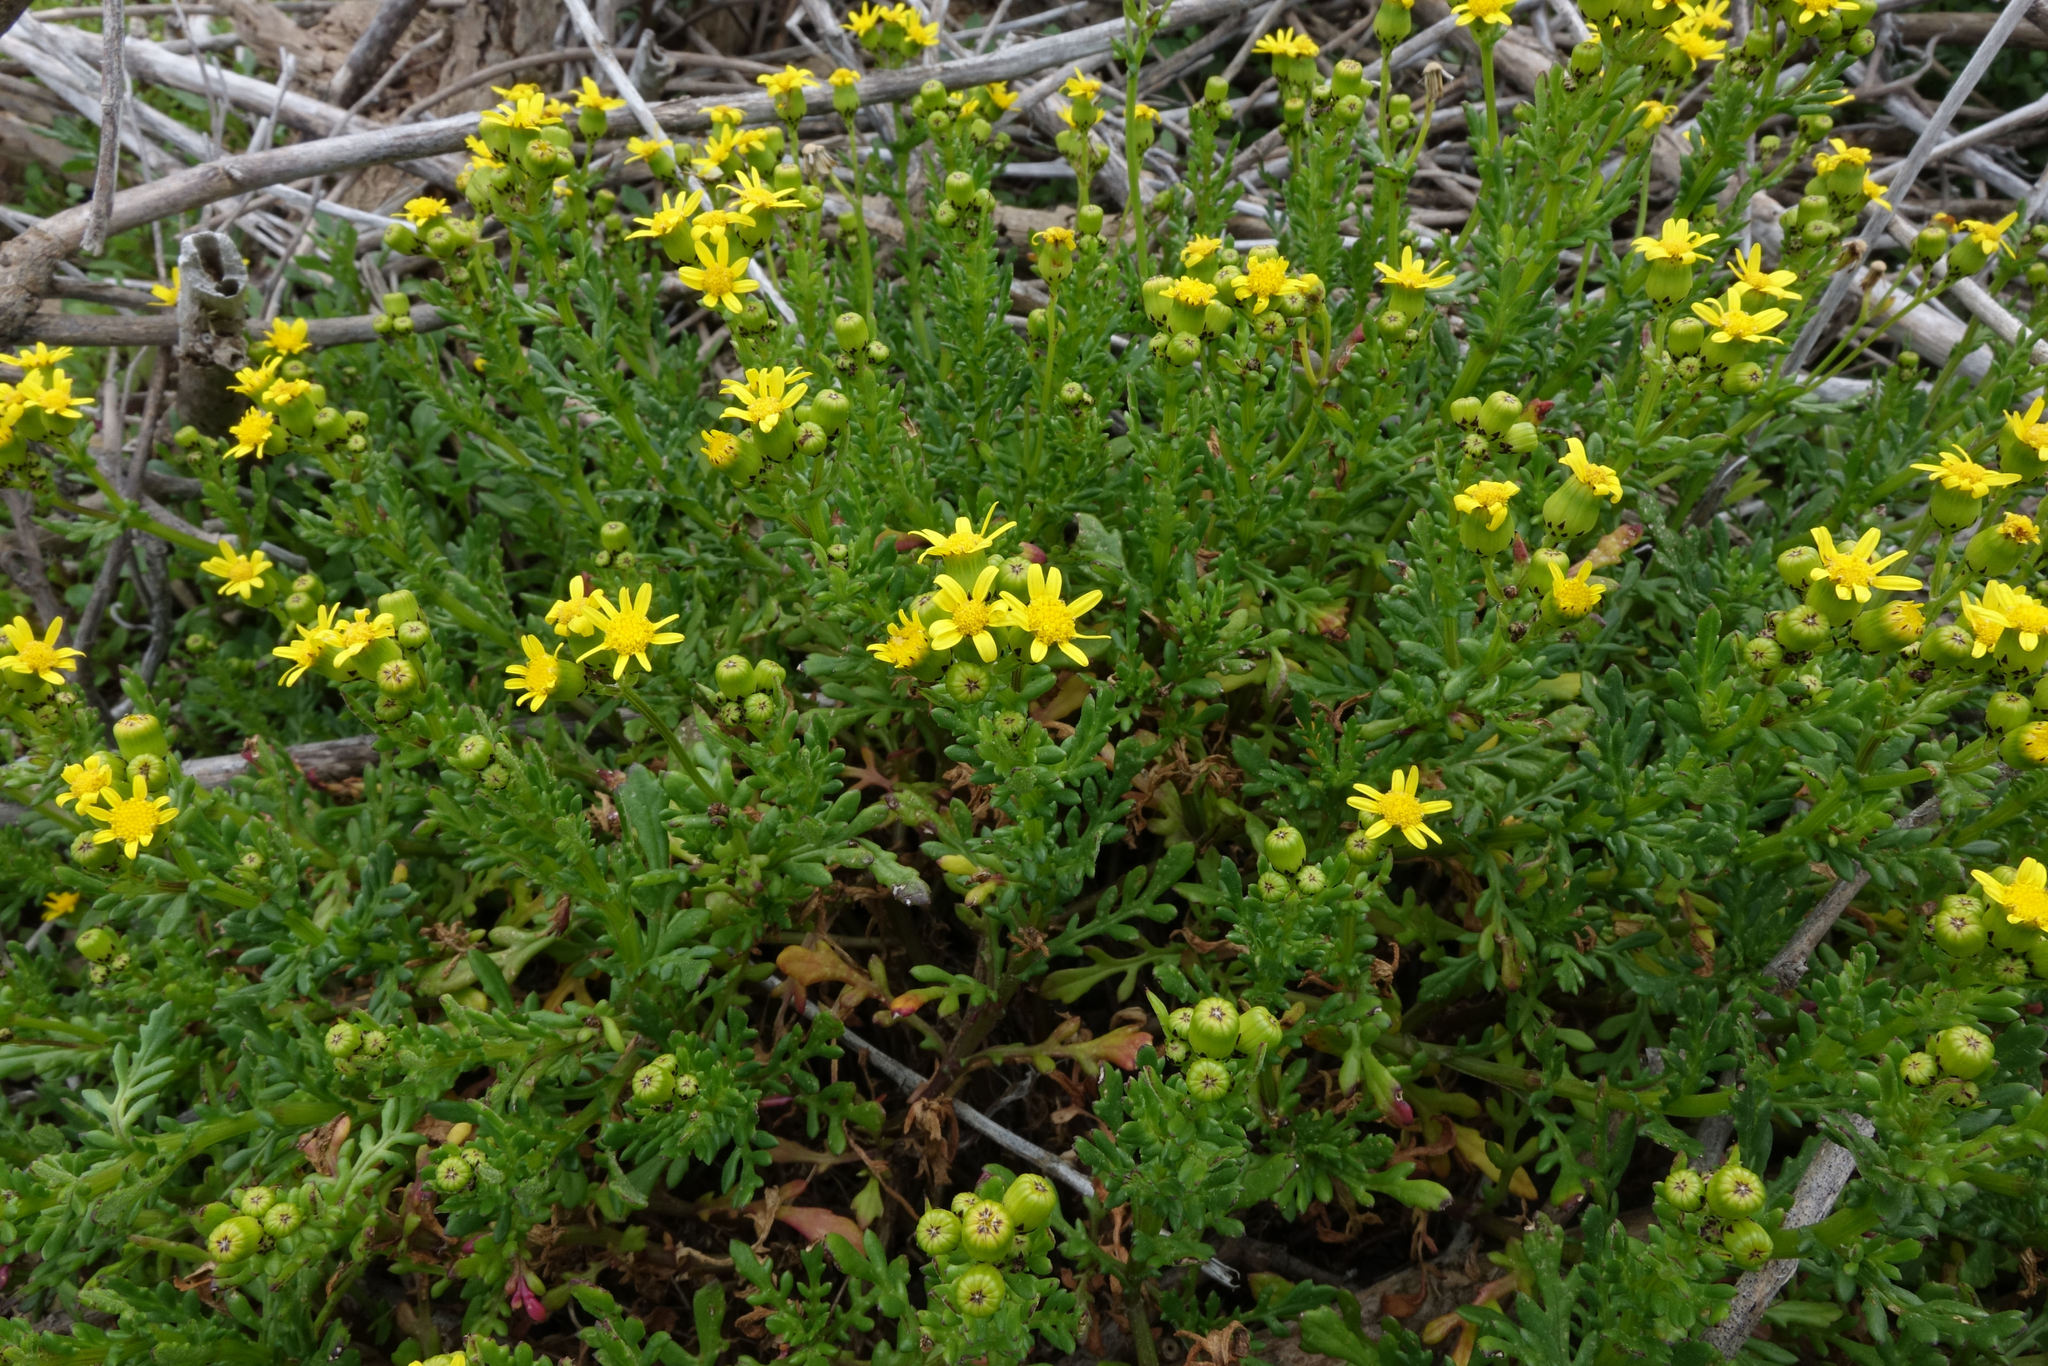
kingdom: Plantae
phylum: Tracheophyta
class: Magnoliopsida
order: Asterales
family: Asteraceae
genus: Senecio
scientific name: Senecio lautus
